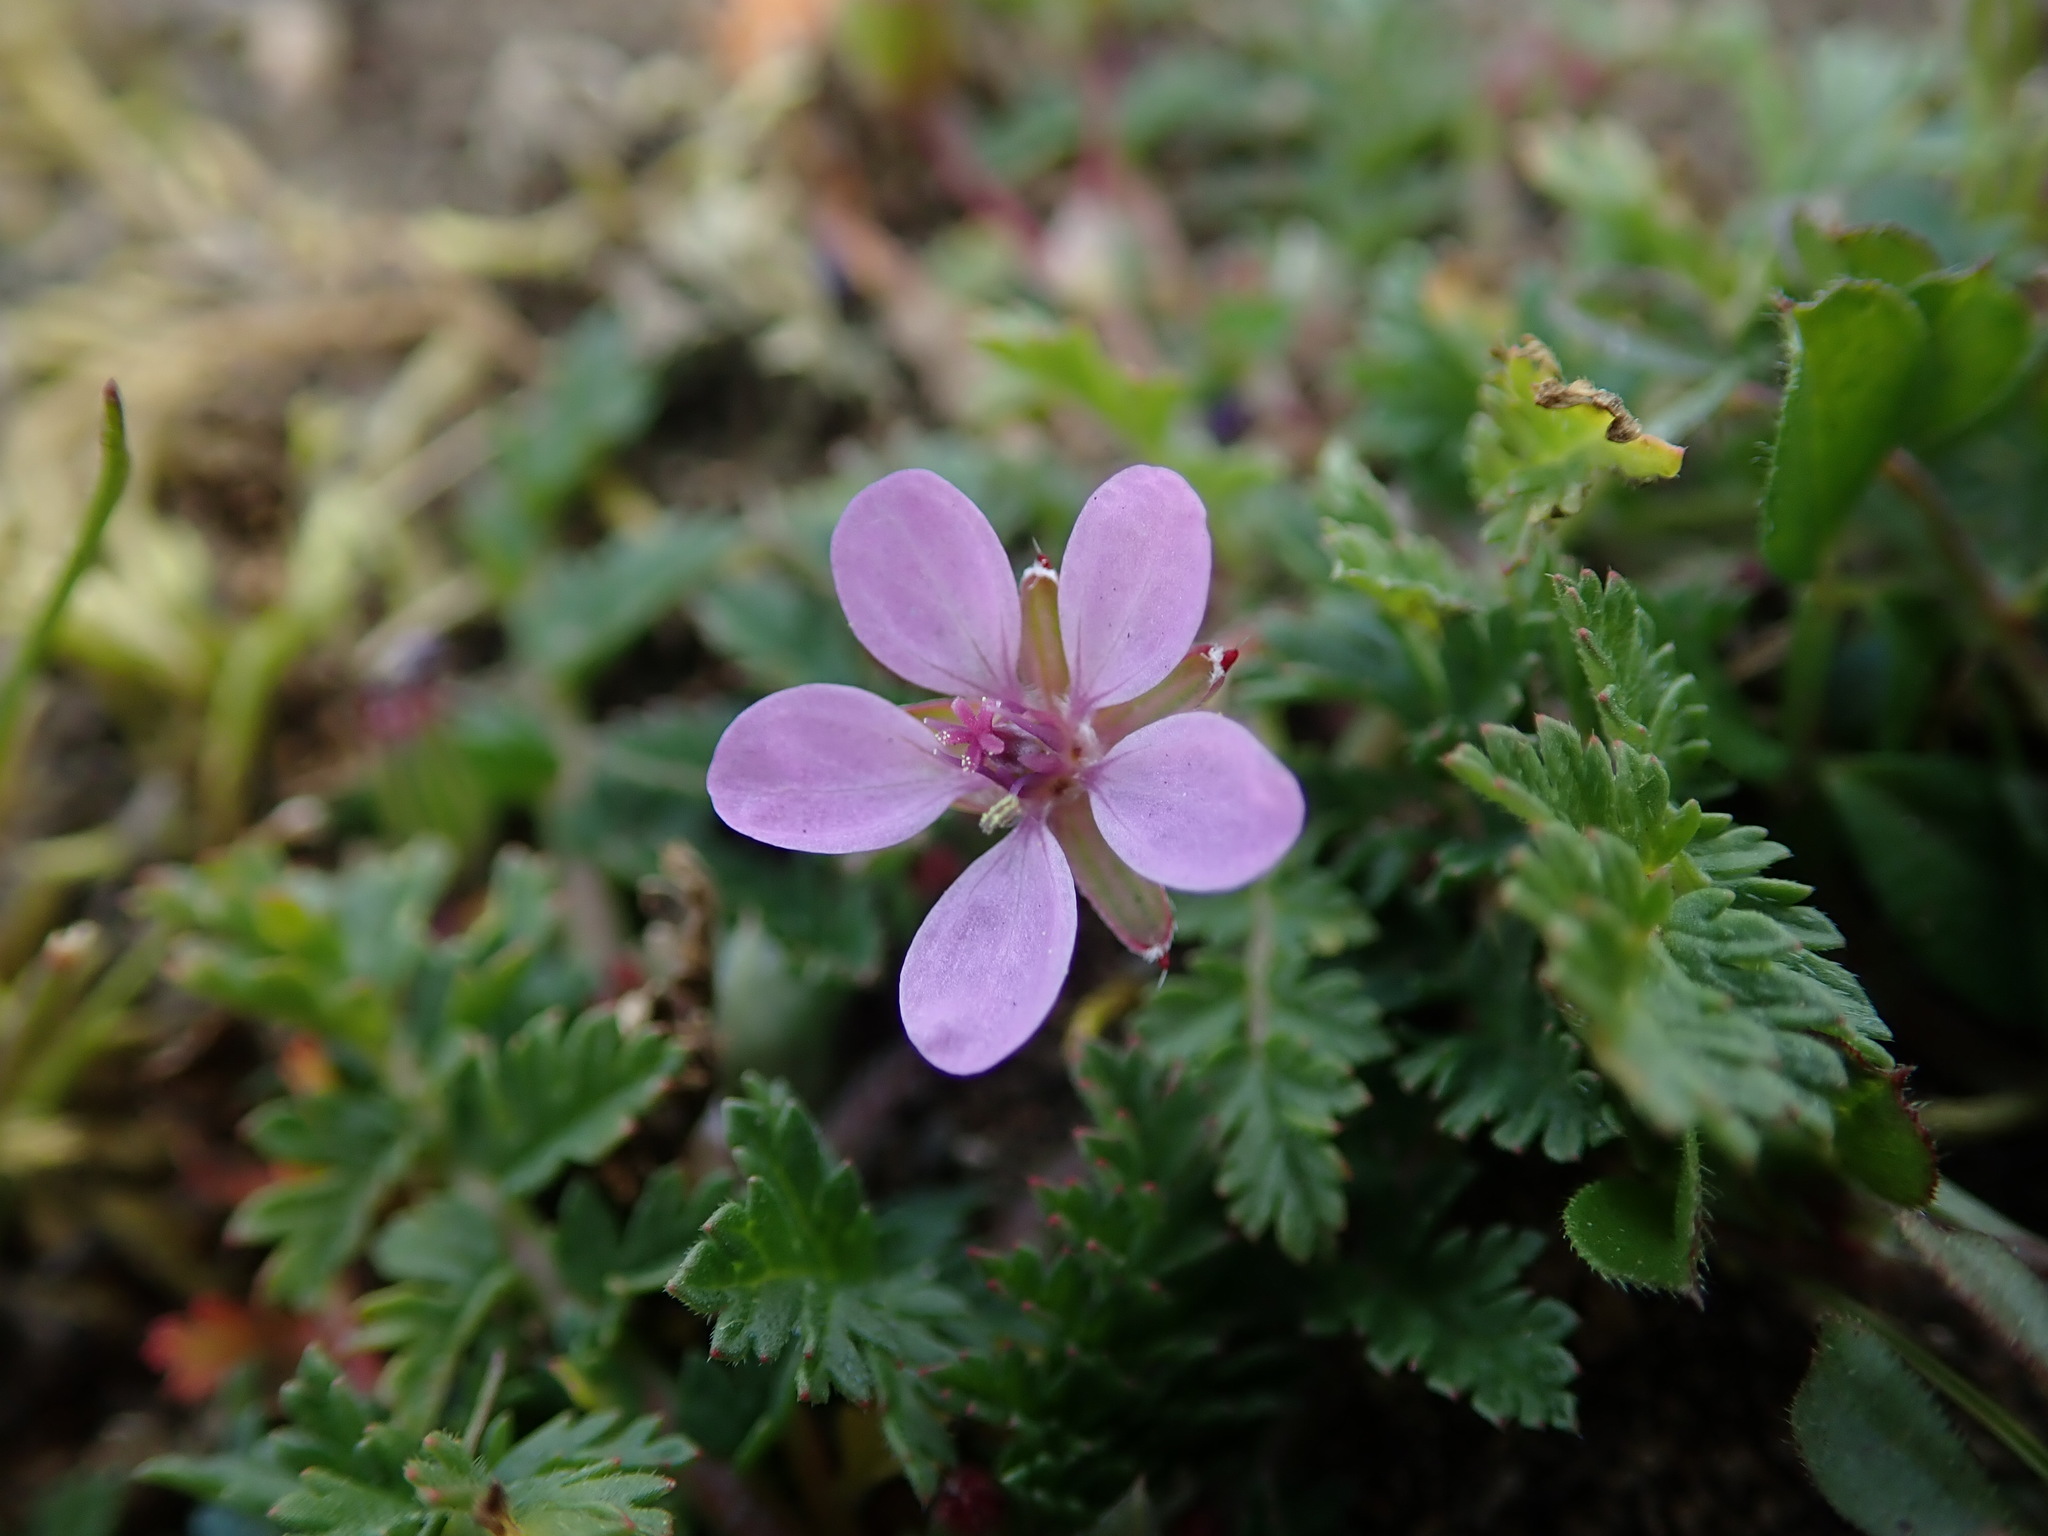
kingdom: Plantae
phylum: Tracheophyta
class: Magnoliopsida
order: Geraniales
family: Geraniaceae
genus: Erodium
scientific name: Erodium cicutarium
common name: Common stork's-bill
